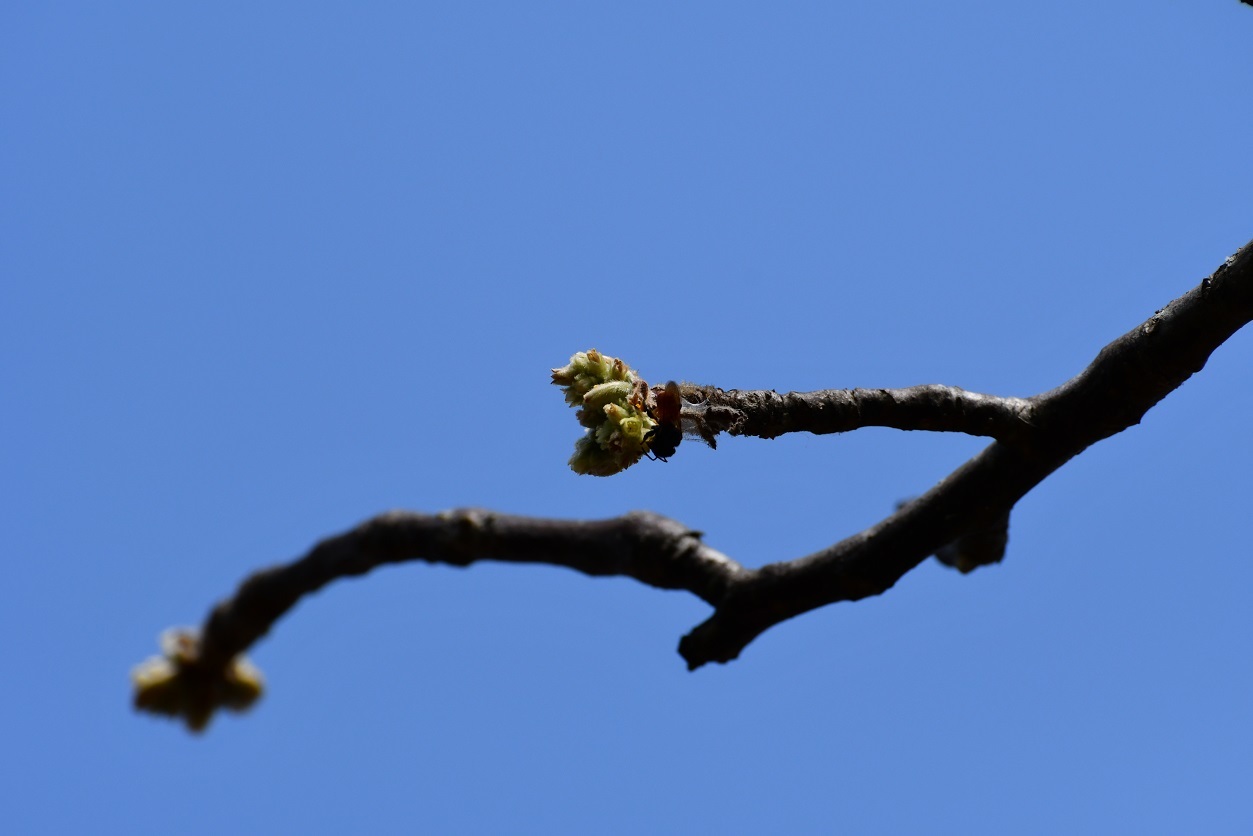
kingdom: Plantae
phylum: Tracheophyta
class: Magnoliopsida
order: Sapindales
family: Burseraceae
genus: Bursera
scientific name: Bursera excelsa
